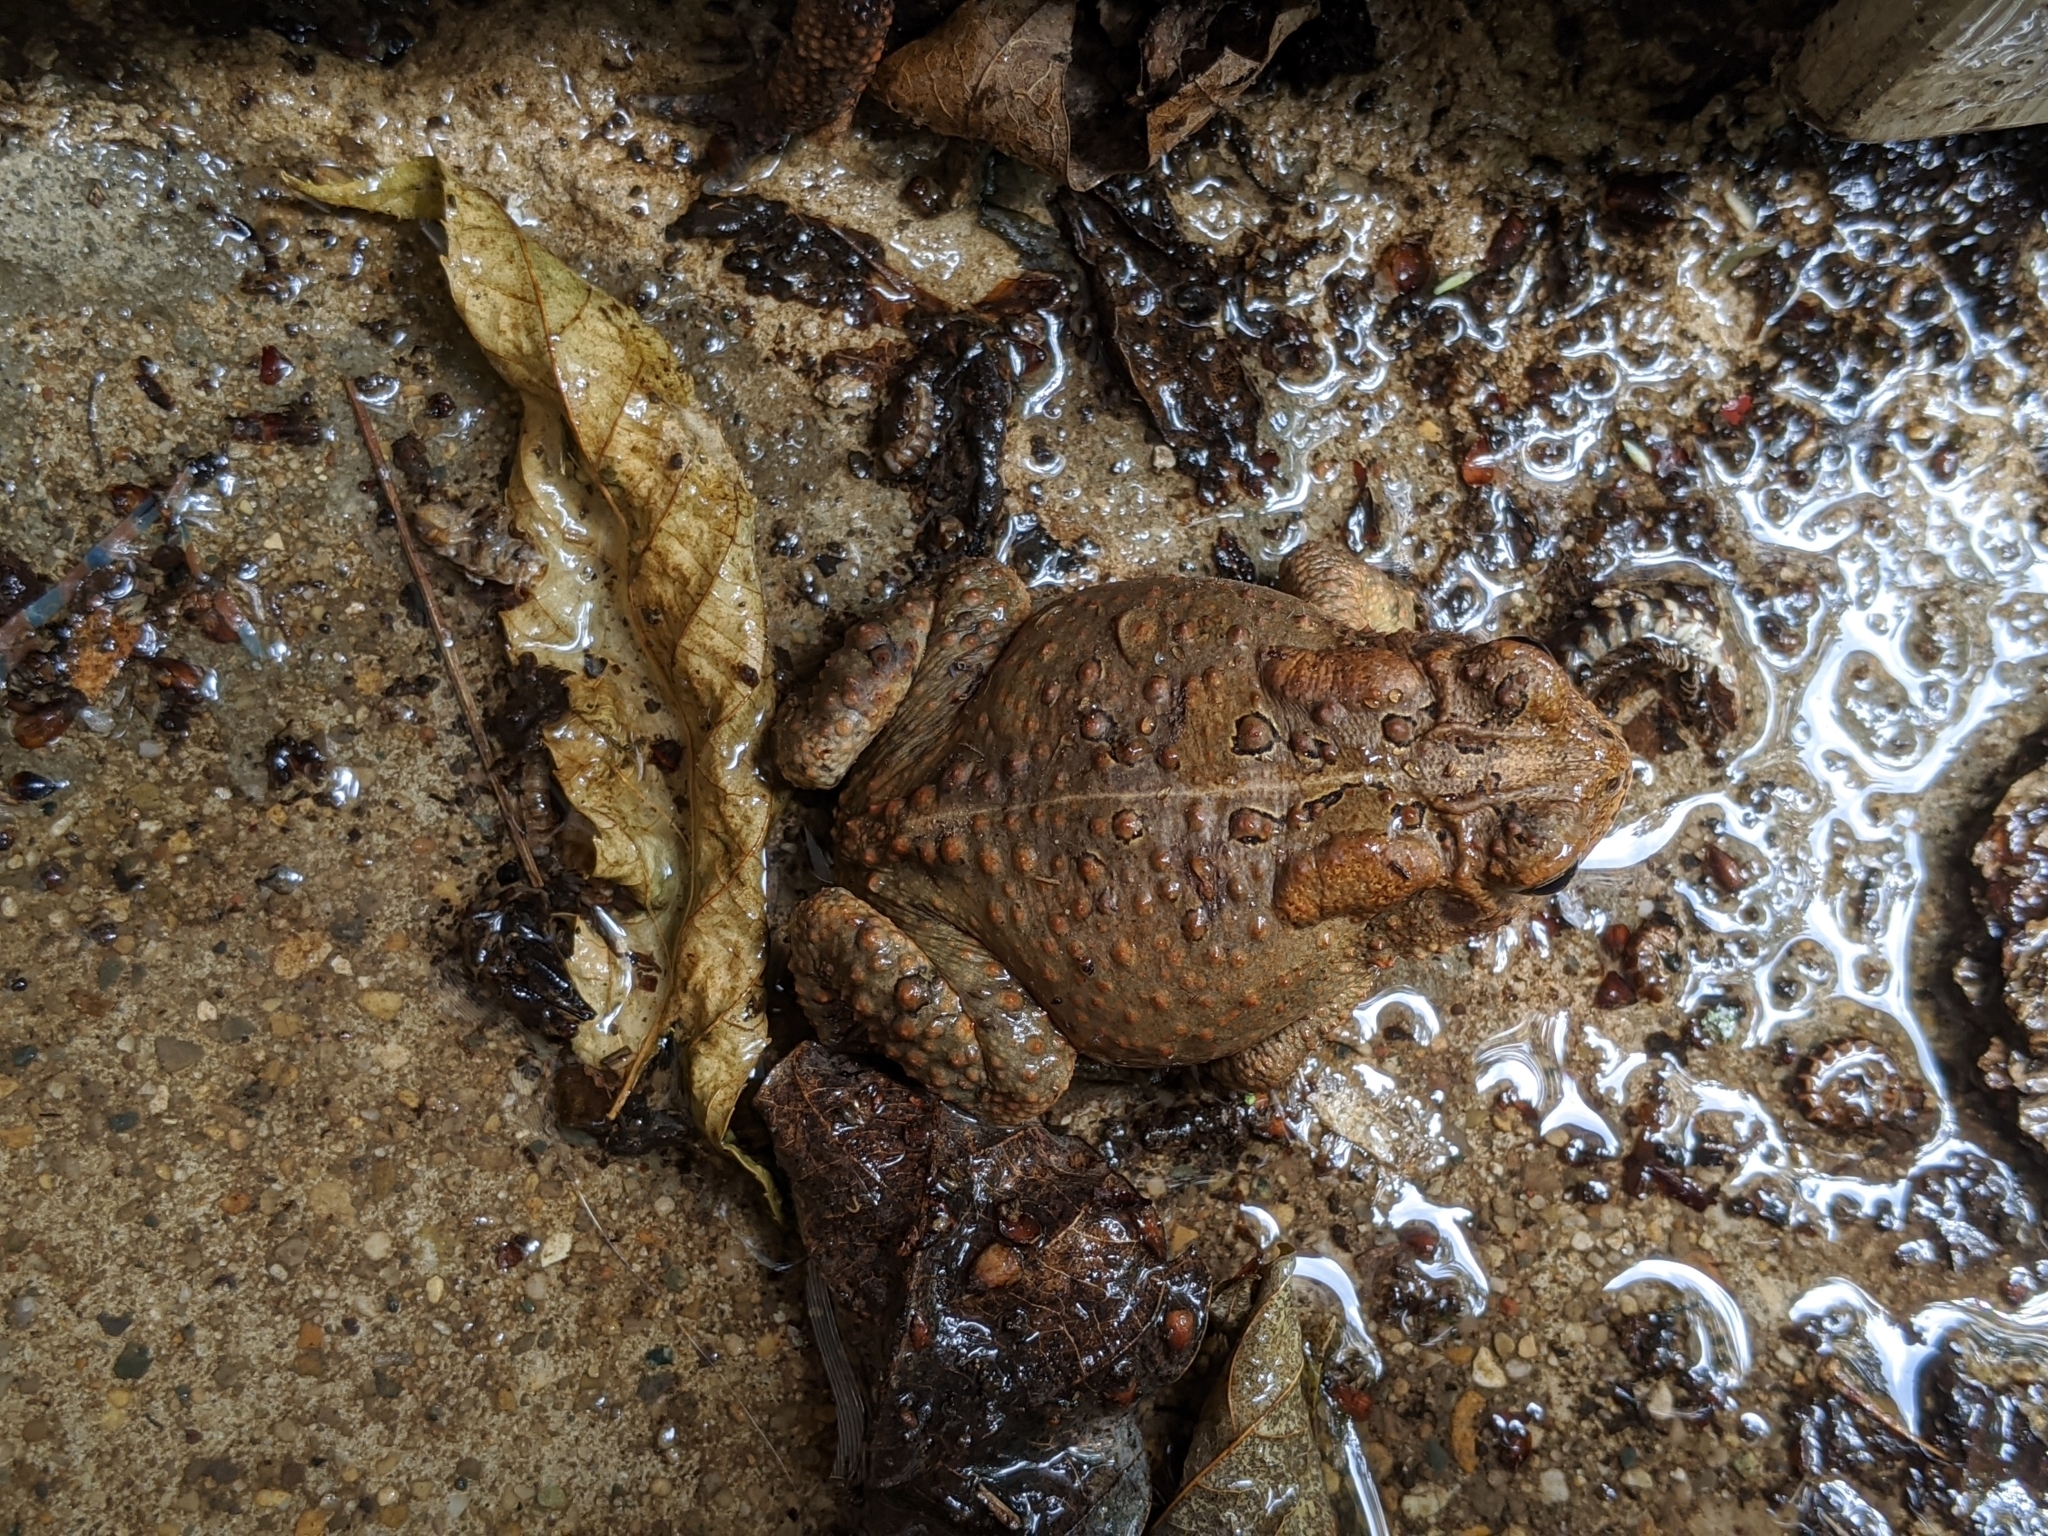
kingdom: Animalia
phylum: Chordata
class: Amphibia
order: Anura
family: Bufonidae
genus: Anaxyrus
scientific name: Anaxyrus americanus
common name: American toad
